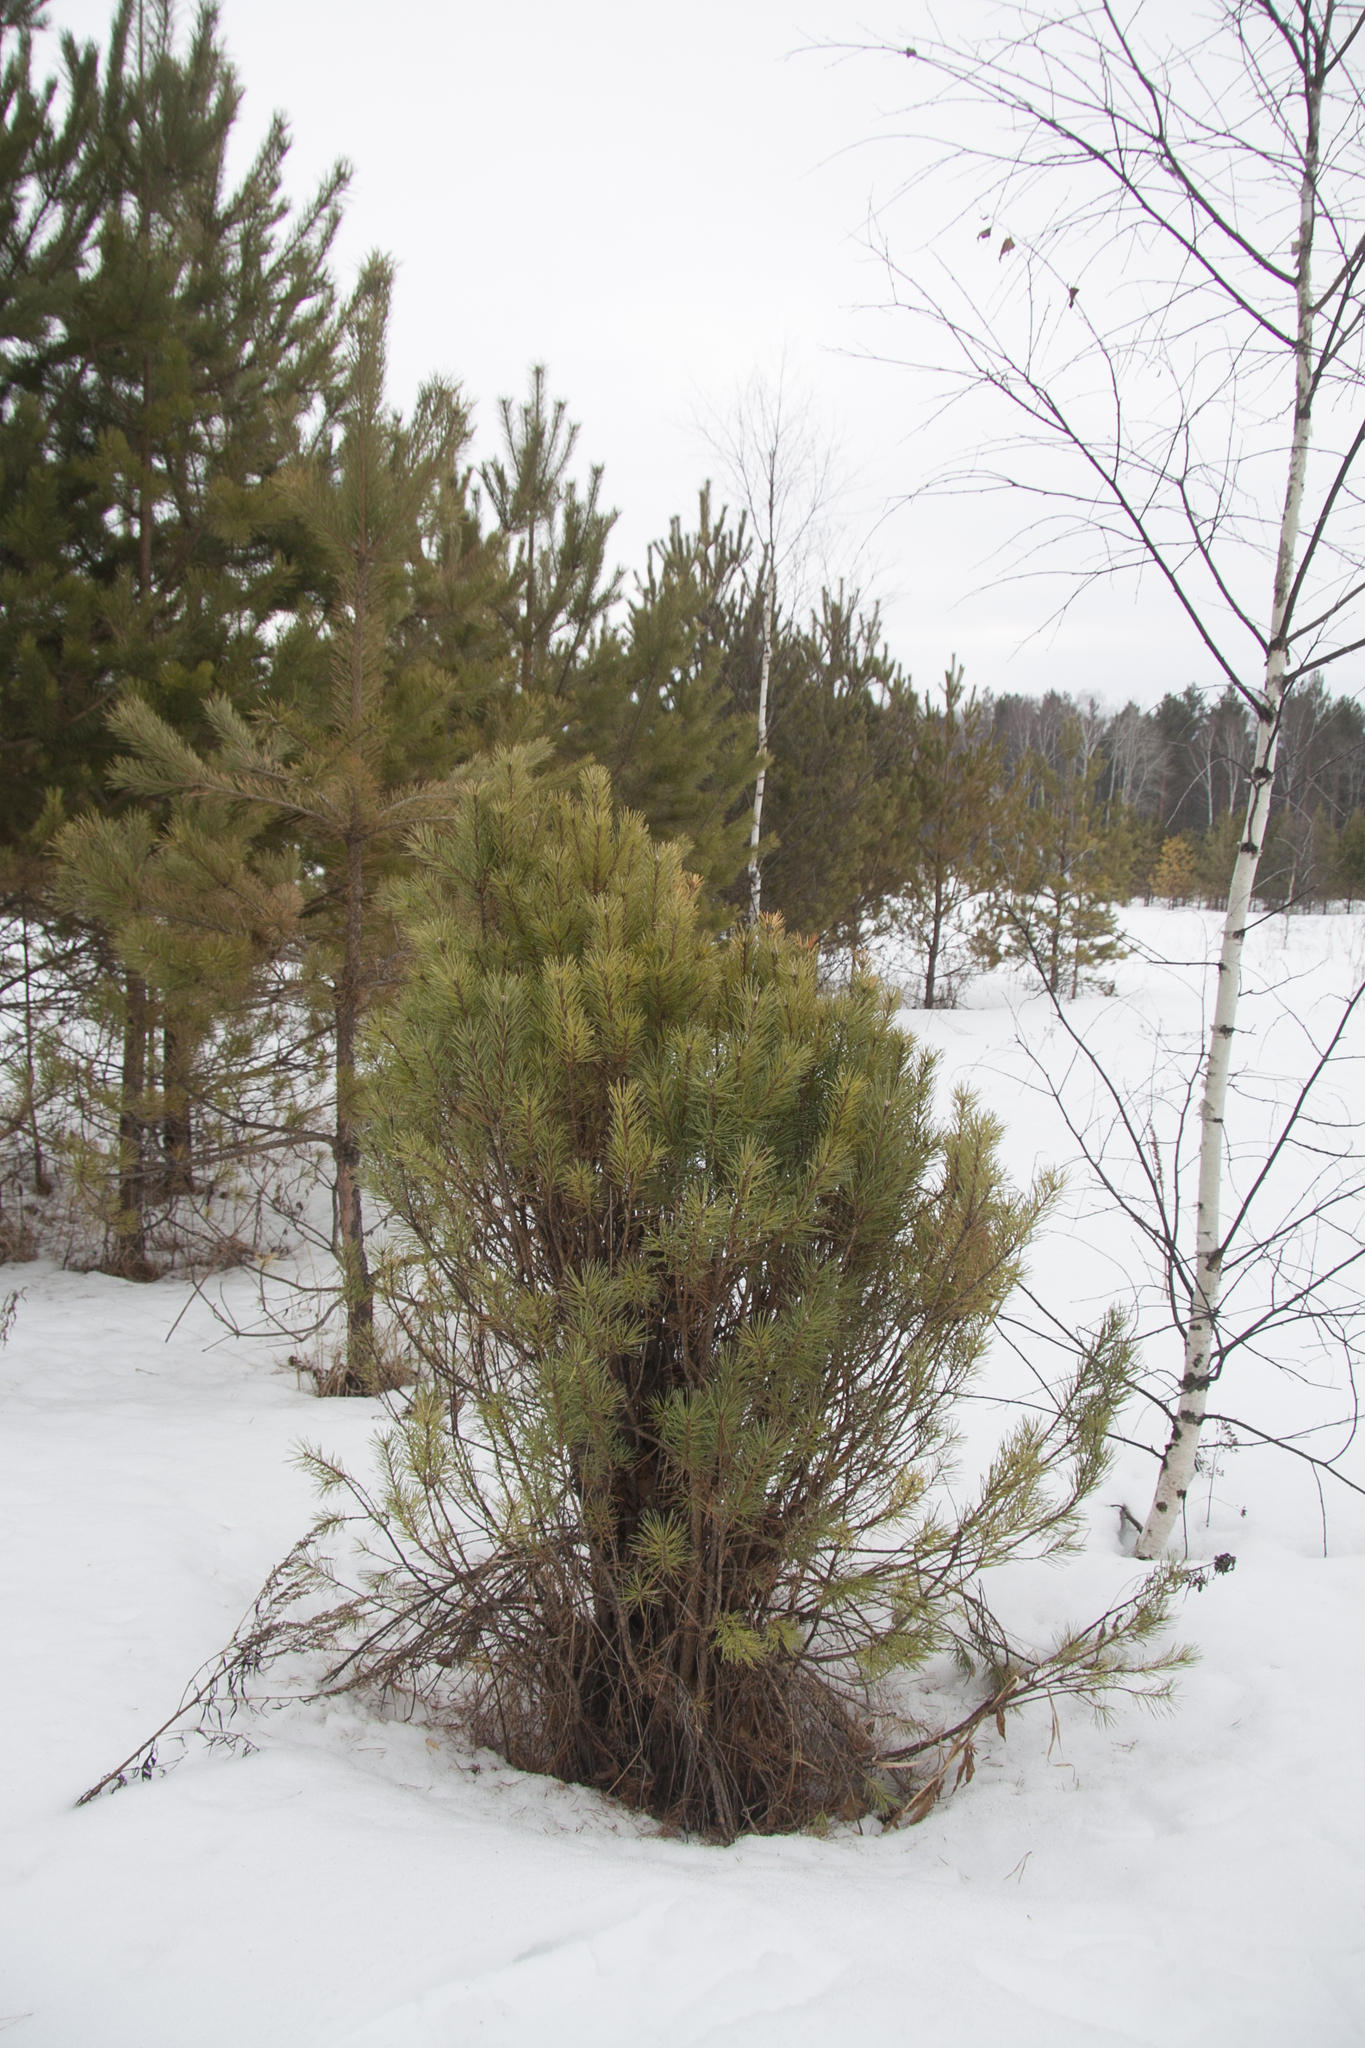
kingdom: Plantae
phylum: Tracheophyta
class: Pinopsida
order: Pinales
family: Pinaceae
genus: Pinus
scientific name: Pinus sylvestris
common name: Scots pine
